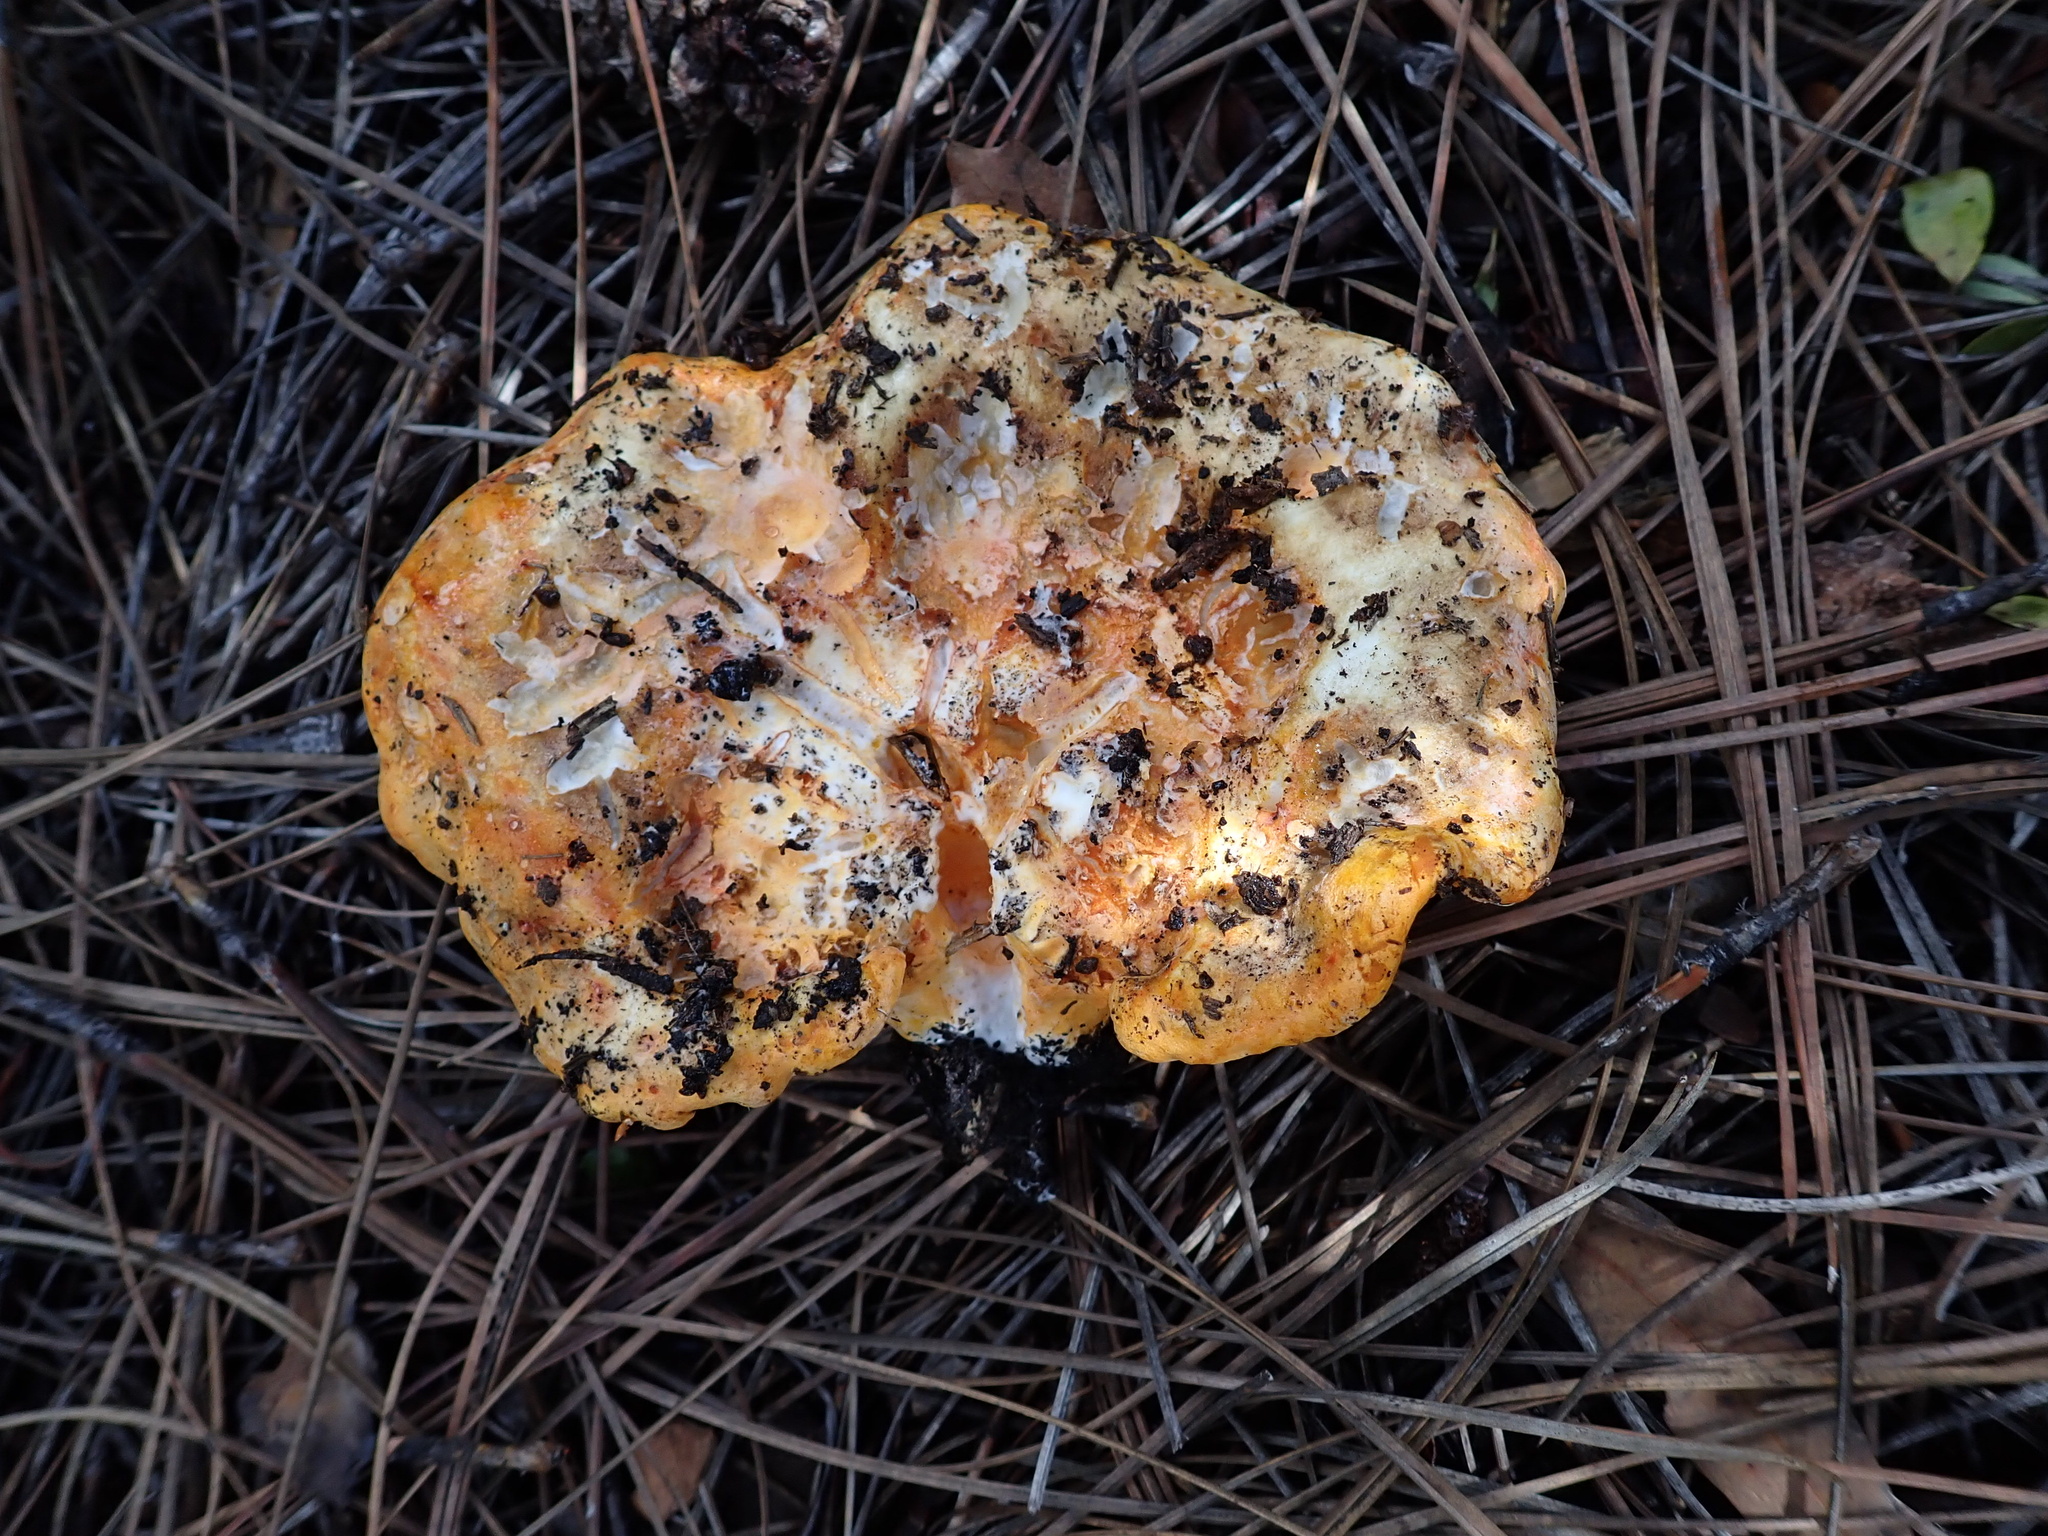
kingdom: Fungi
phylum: Ascomycota
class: Sordariomycetes
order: Hypocreales
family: Hypocreaceae
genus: Hypomyces
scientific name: Hypomyces lactifluorum
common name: Lobster mushroom
